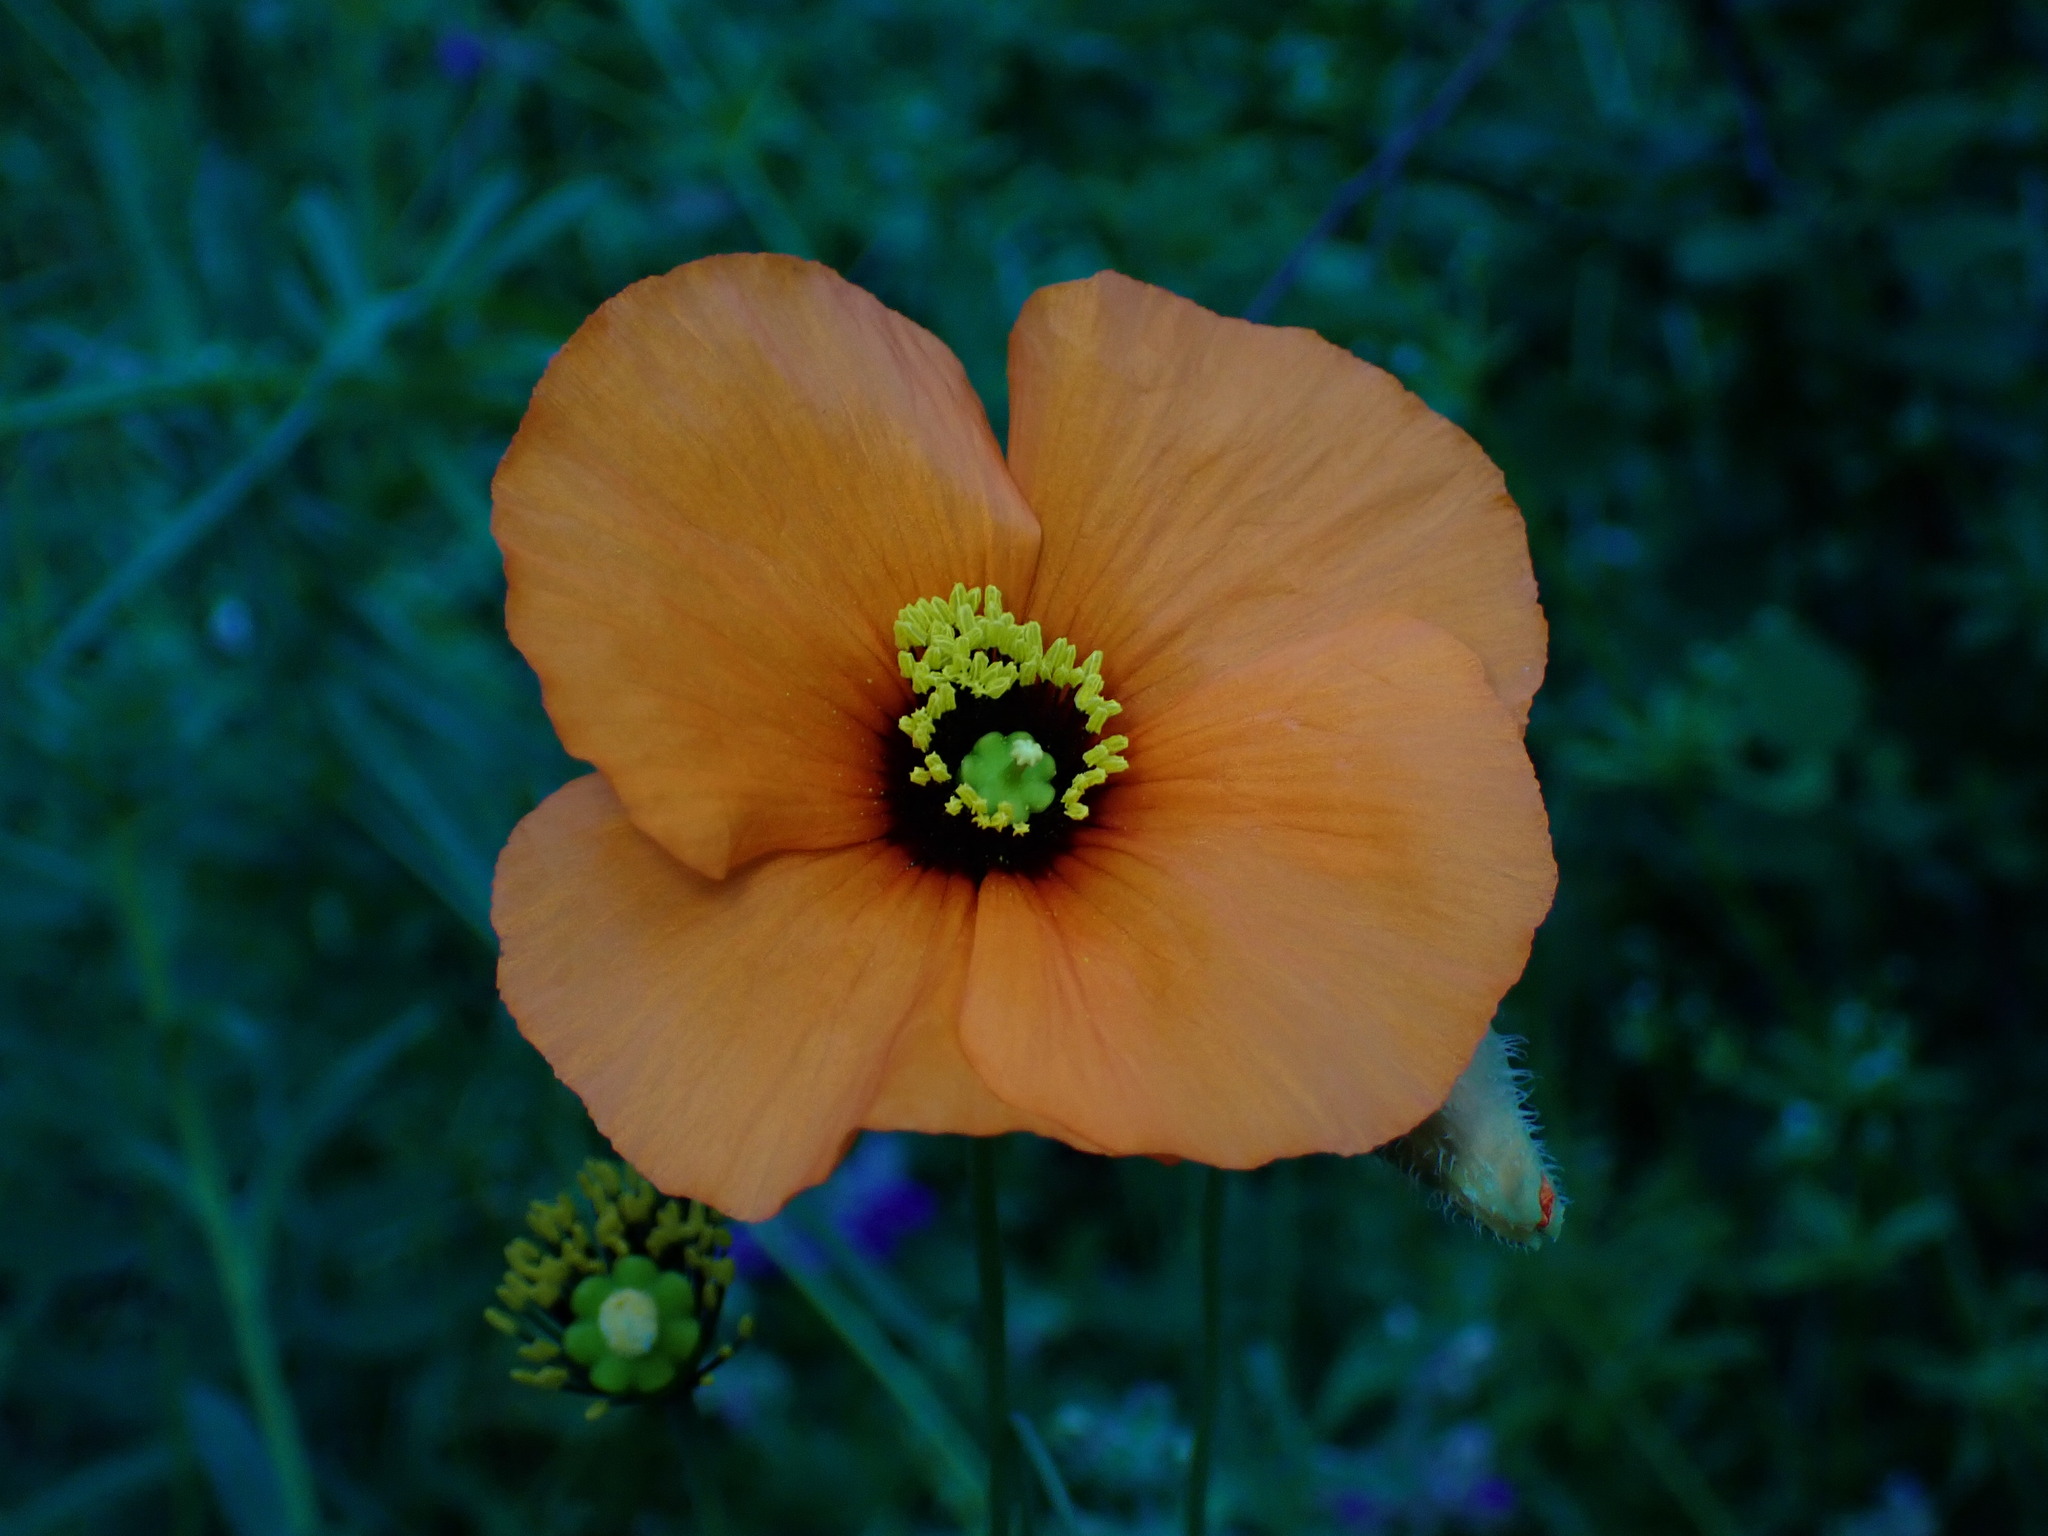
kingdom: Plantae
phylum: Tracheophyta
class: Magnoliopsida
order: Ranunculales
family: Papaveraceae
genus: Stylomecon
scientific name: Stylomecon heterophylla
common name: Flaming-poppy
